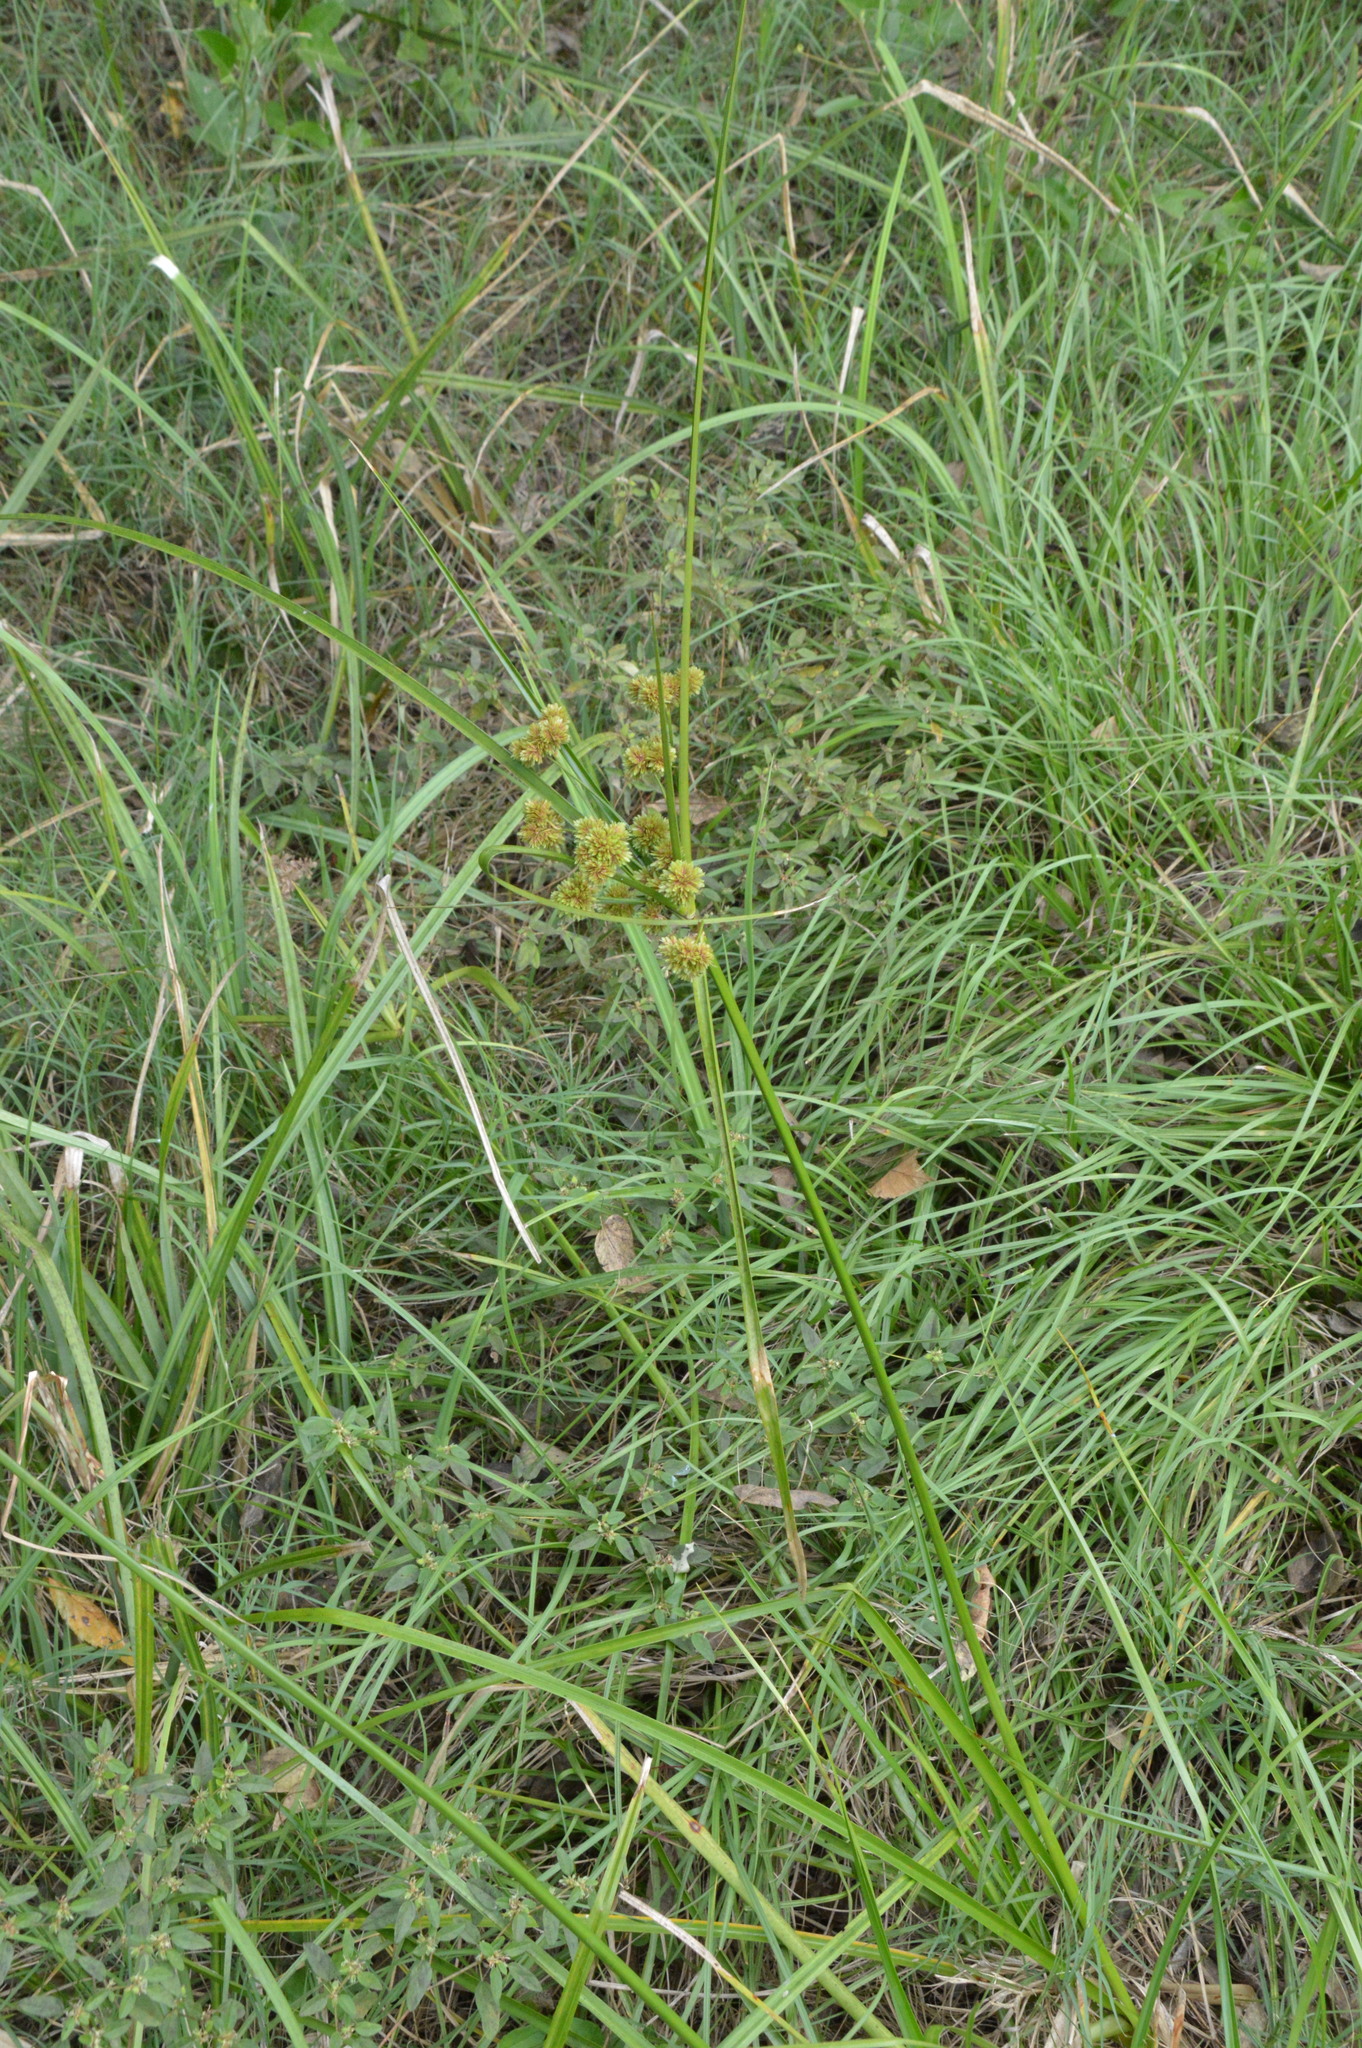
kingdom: Plantae
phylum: Tracheophyta
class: Liliopsida
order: Poales
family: Cyperaceae
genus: Cyperus
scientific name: Cyperus entrerianus
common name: Woodrush flatsedge
